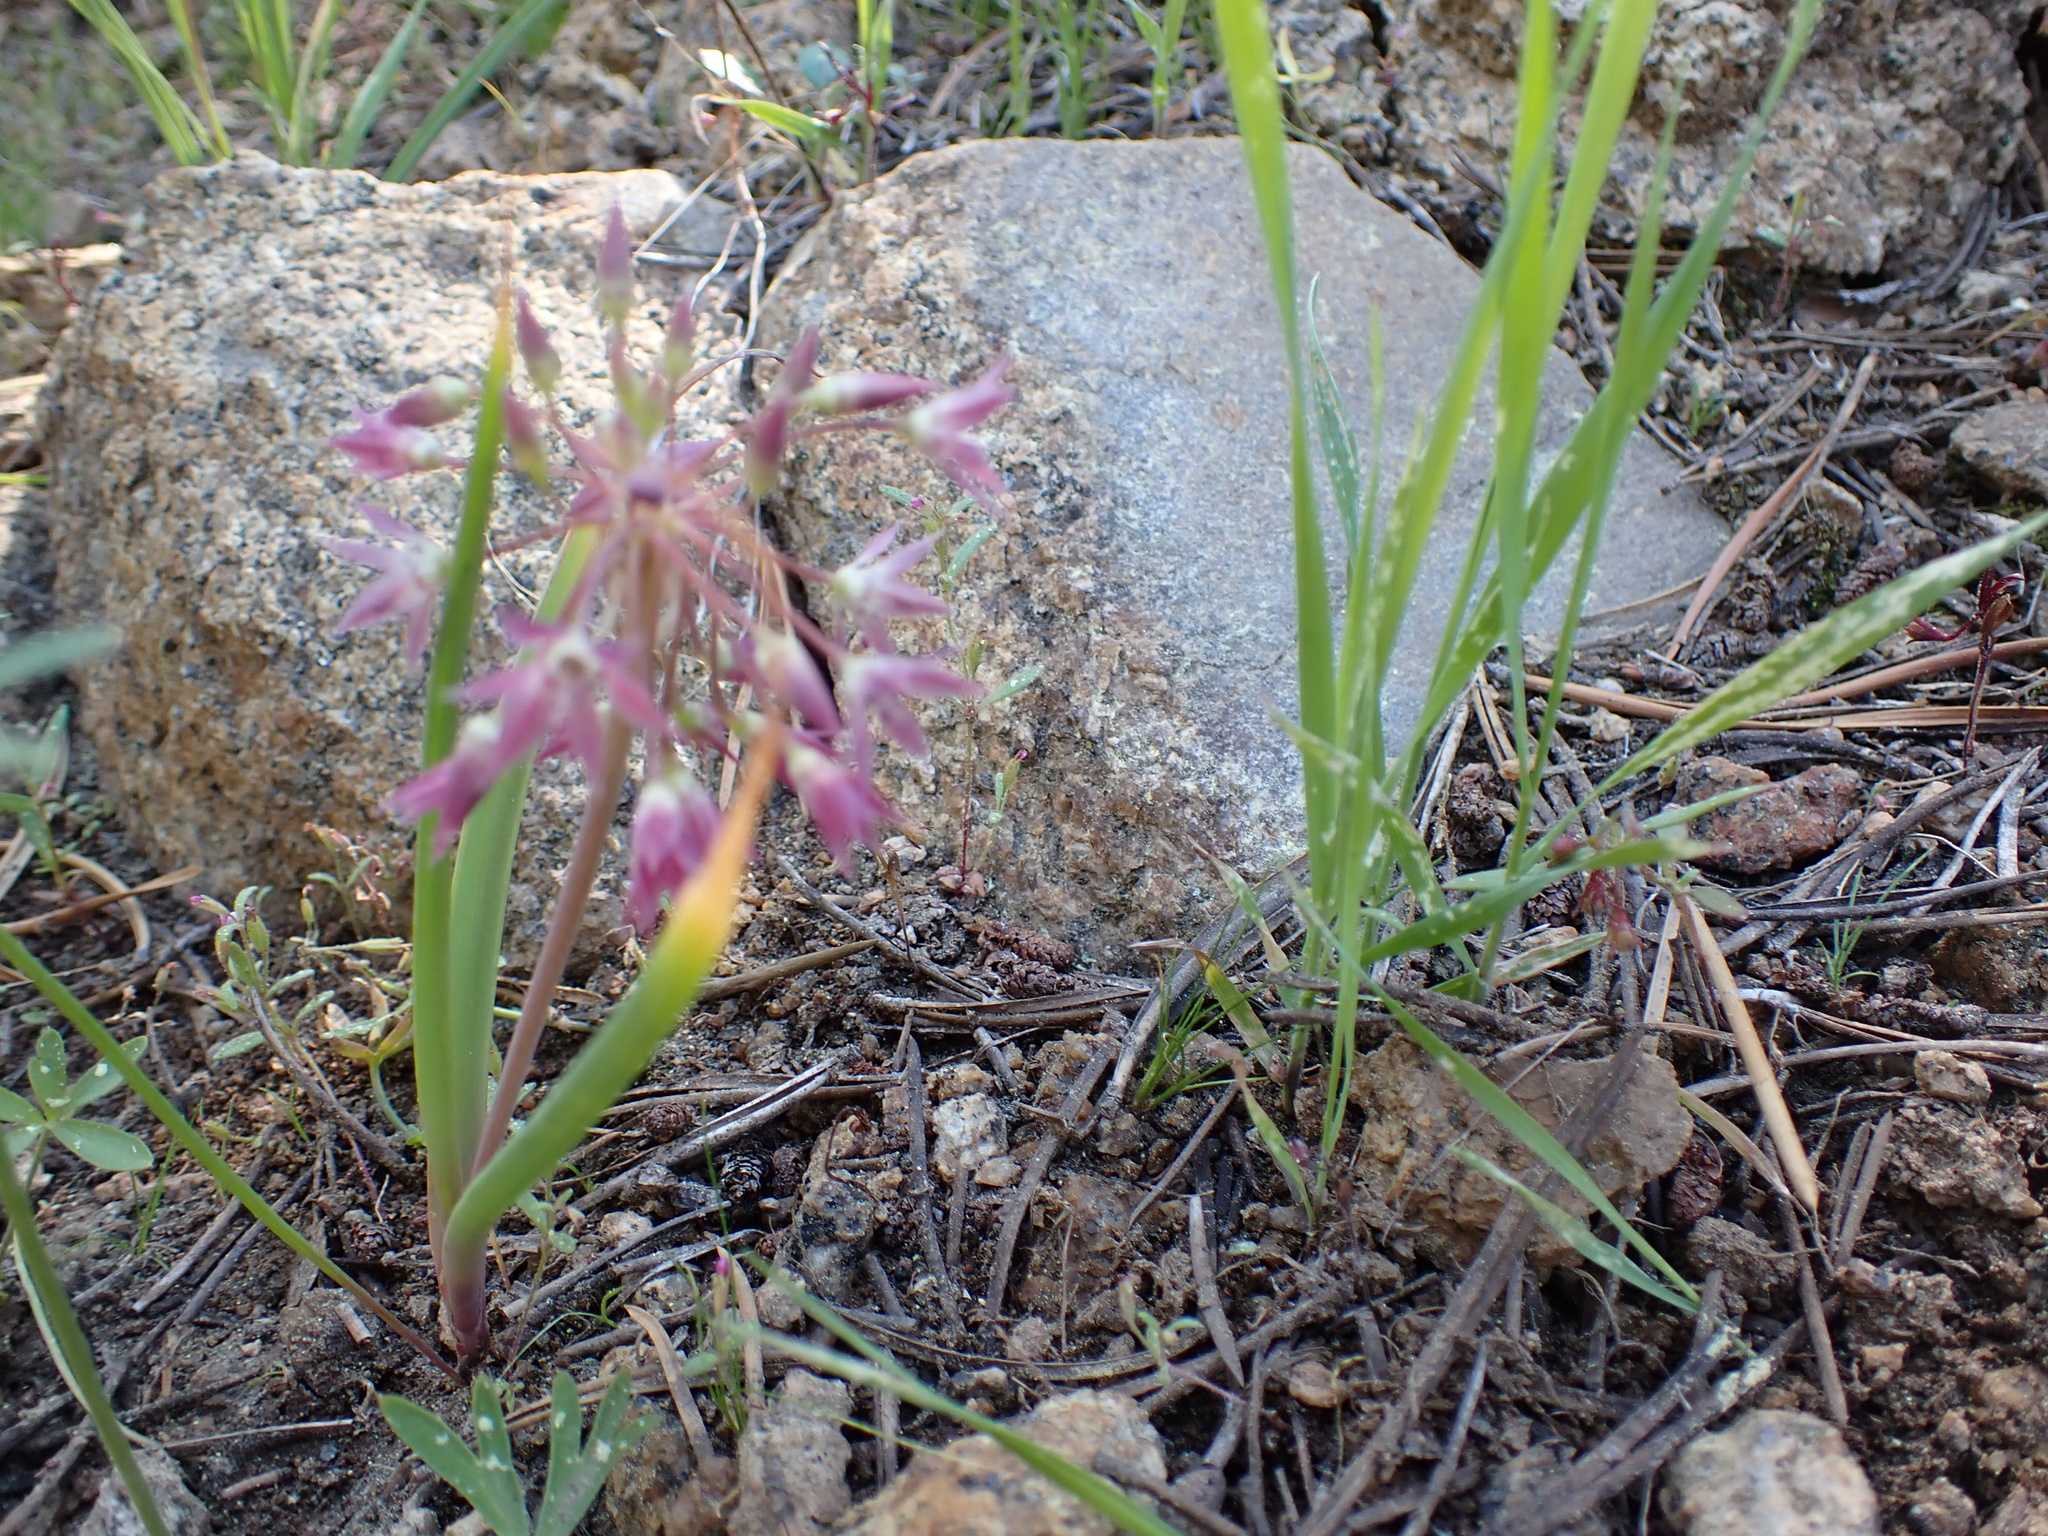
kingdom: Plantae
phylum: Tracheophyta
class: Liliopsida
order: Asparagales
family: Amaryllidaceae
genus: Allium
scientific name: Allium campanulatum
